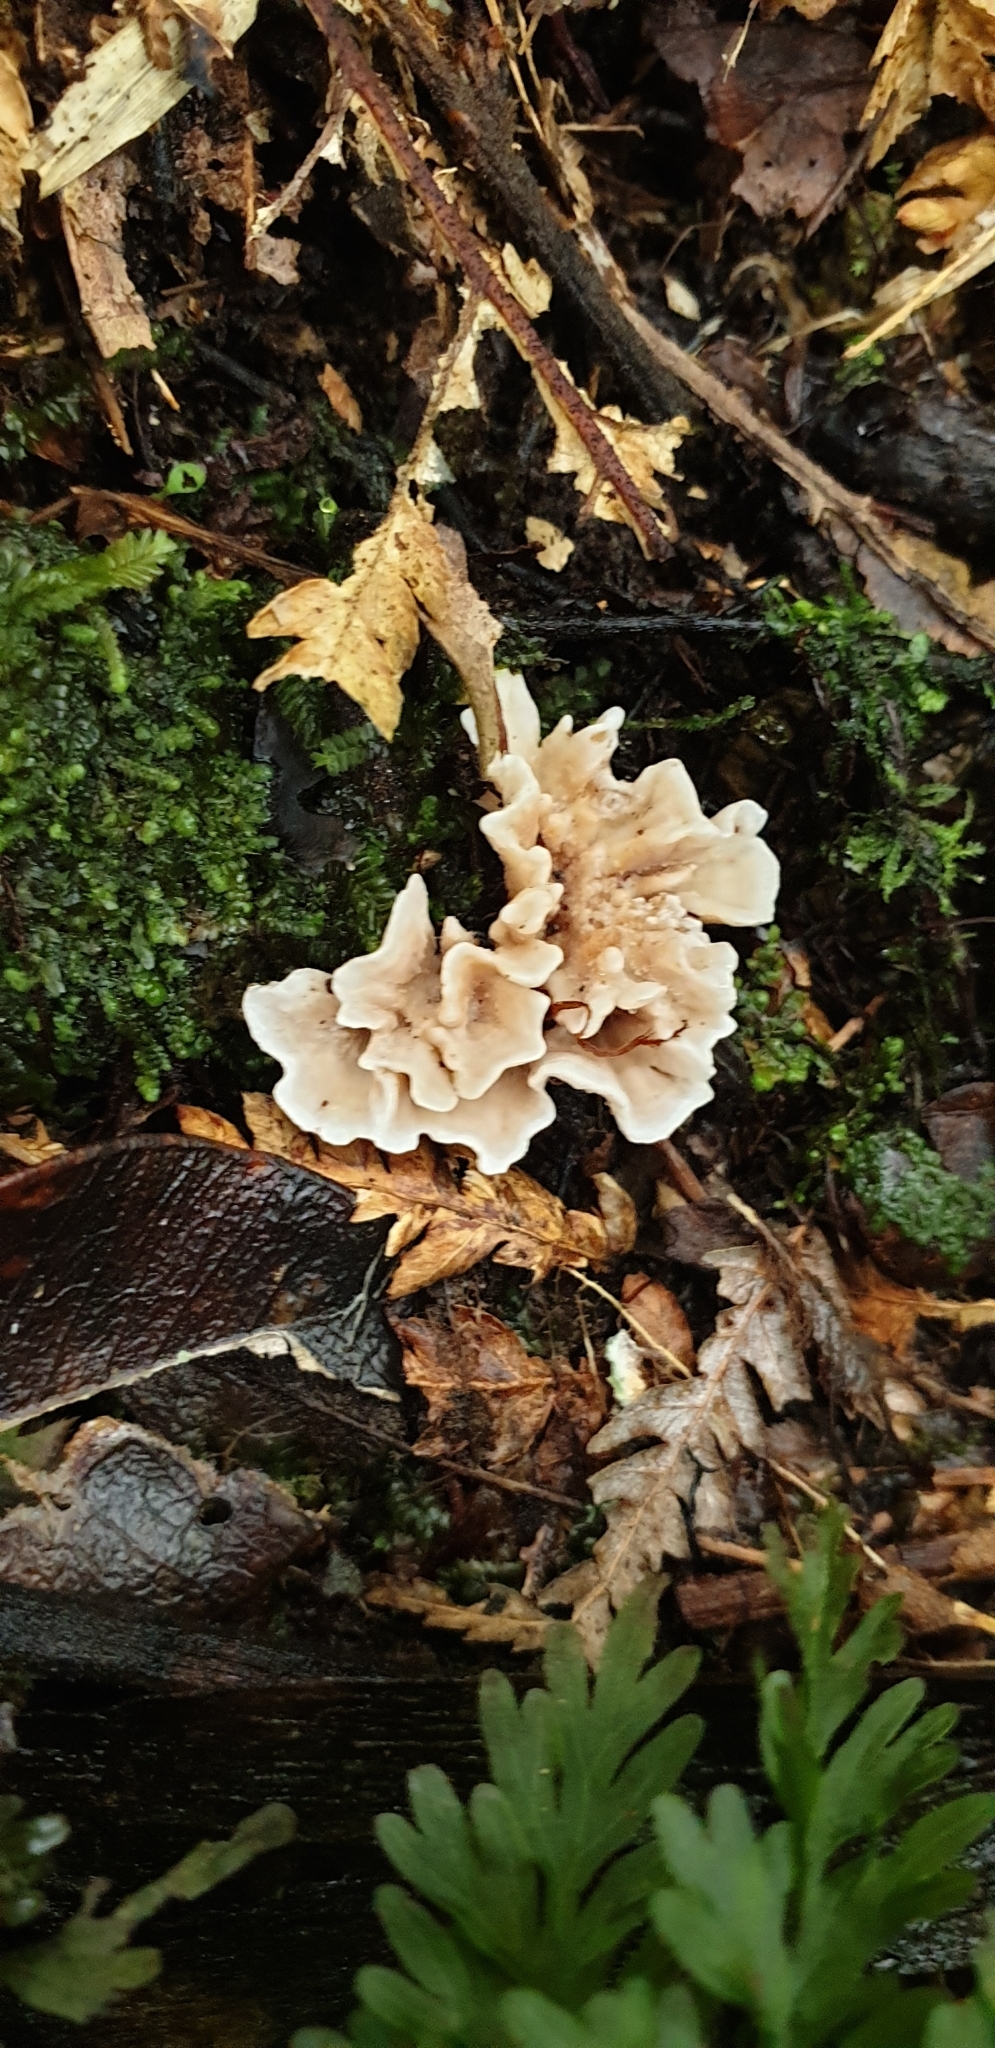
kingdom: Fungi
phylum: Basidiomycota
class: Agaricomycetes
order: Stereopsidales
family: Stereopsidaceae
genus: Stereopsis
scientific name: Stereopsis hiscens
